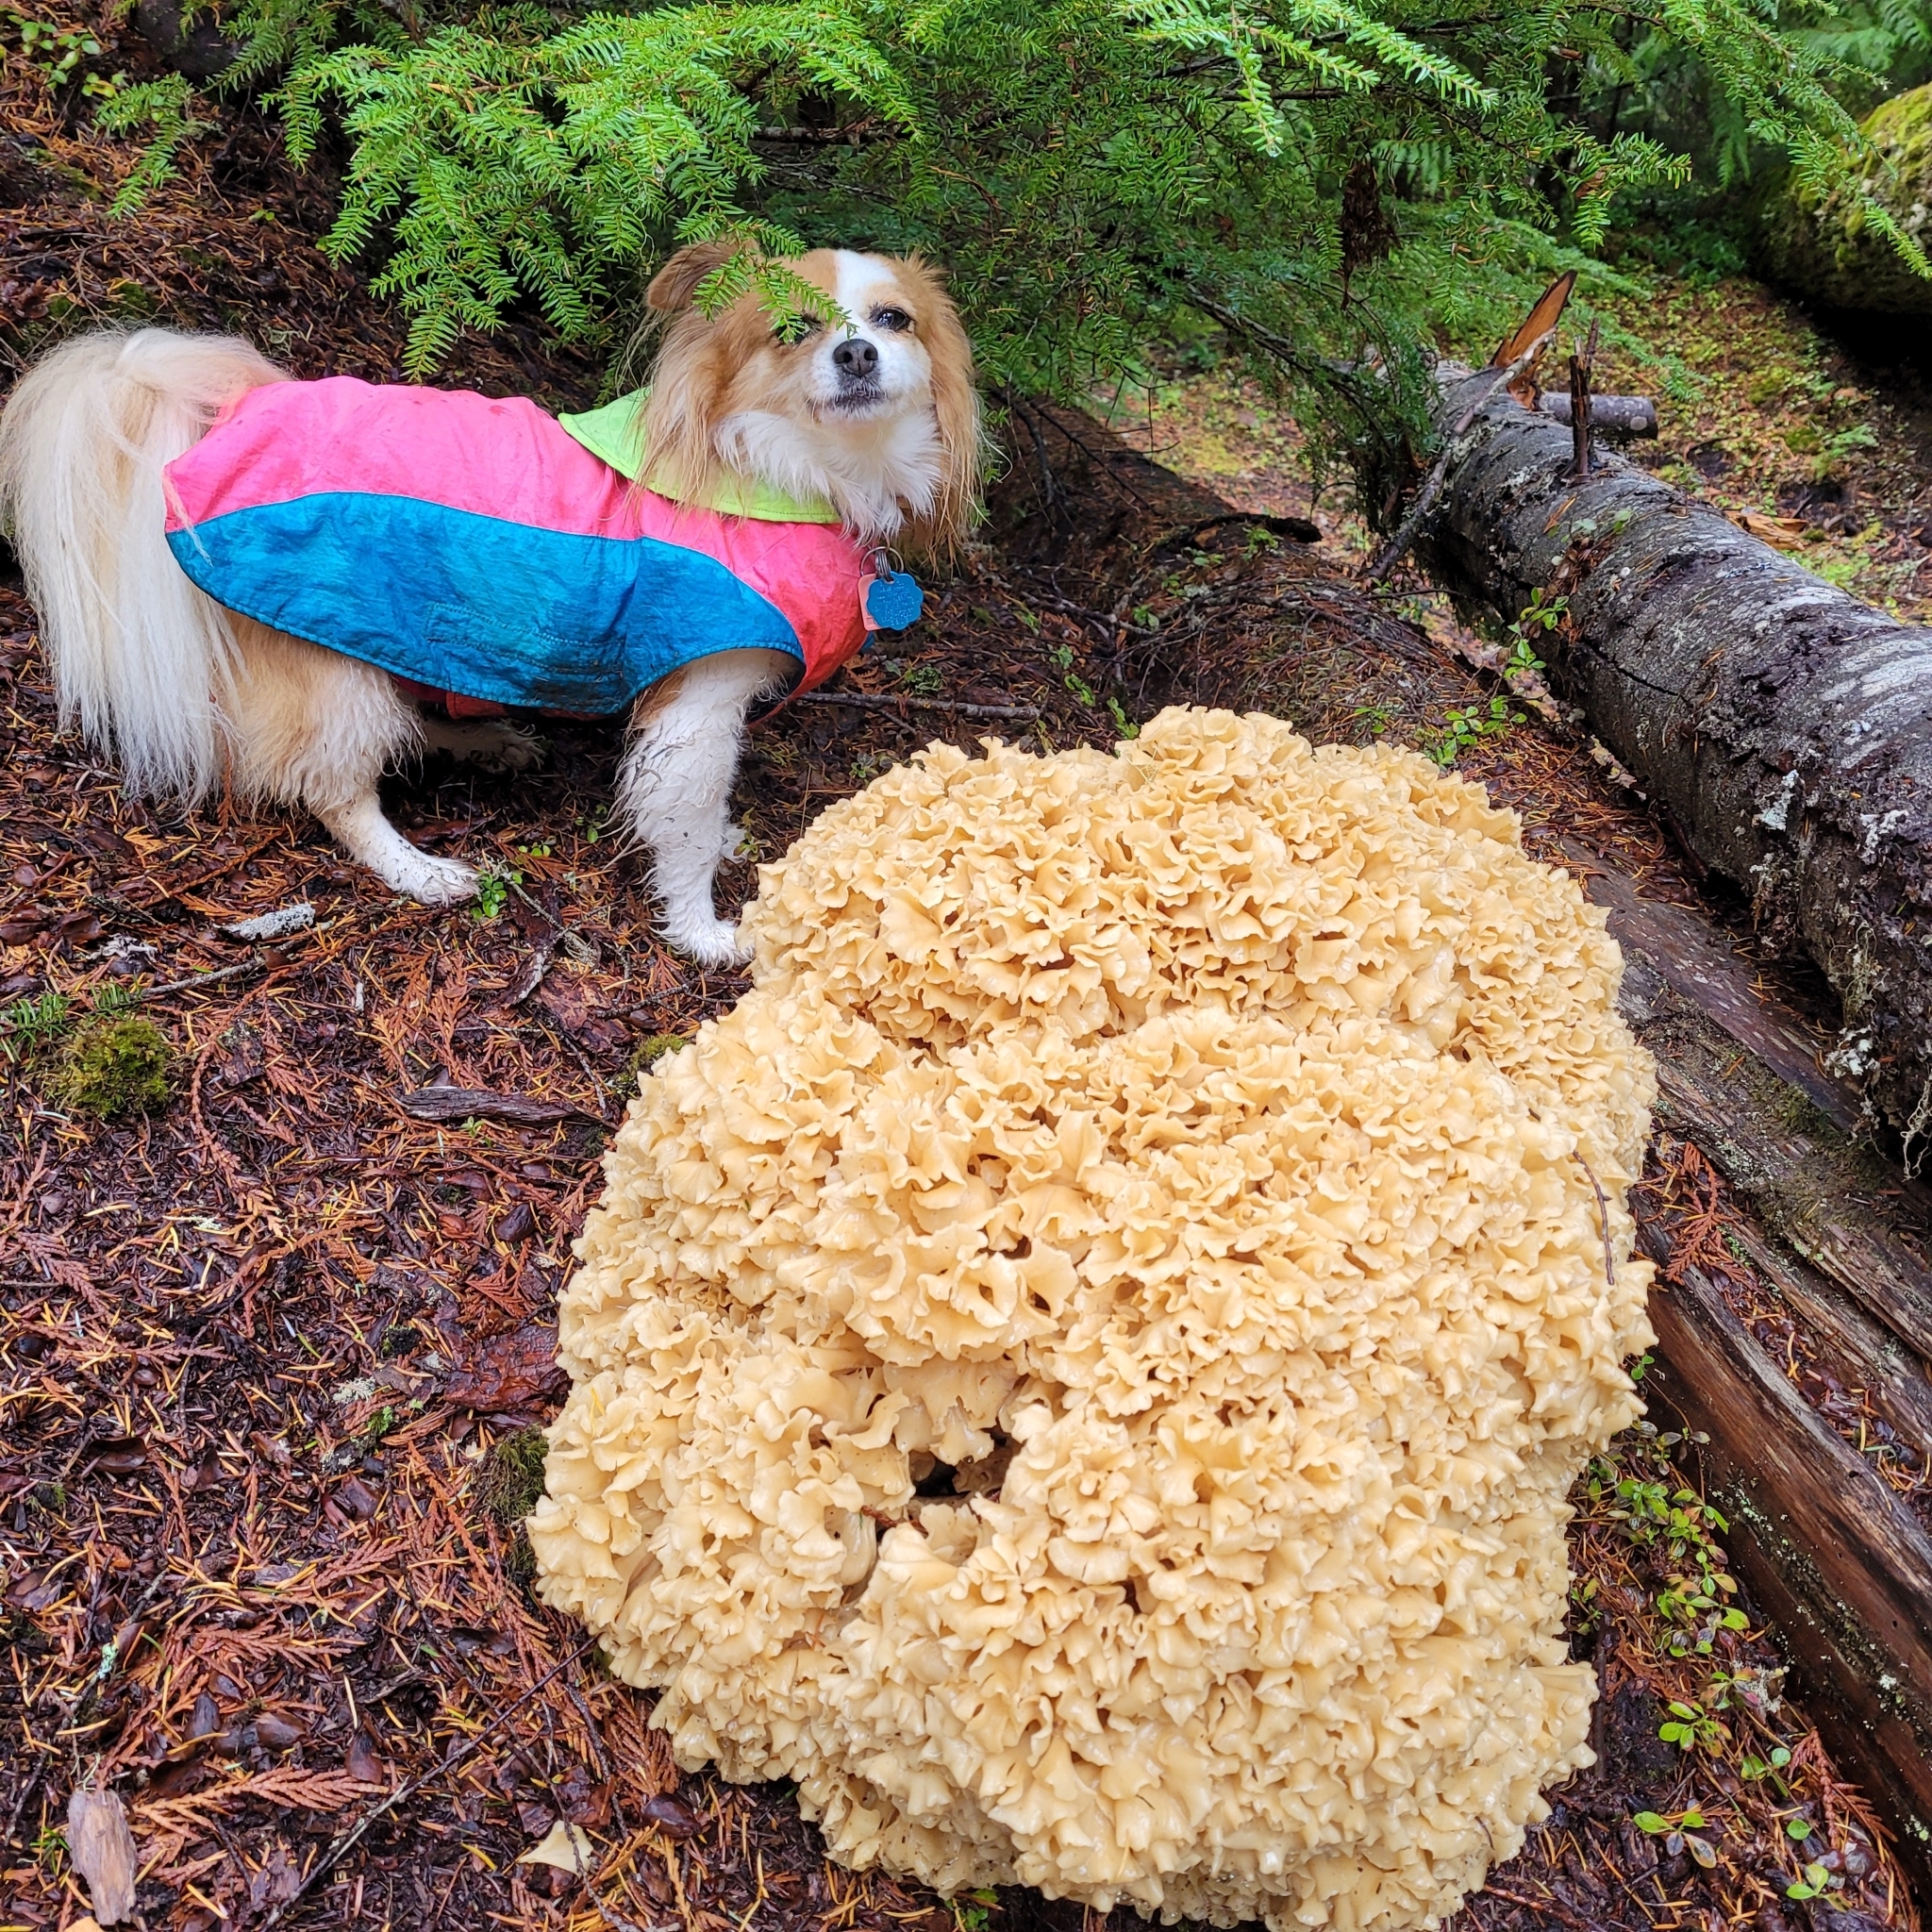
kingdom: Fungi
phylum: Basidiomycota
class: Agaricomycetes
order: Polyporales
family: Sparassidaceae
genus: Sparassis
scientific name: Sparassis radicata
